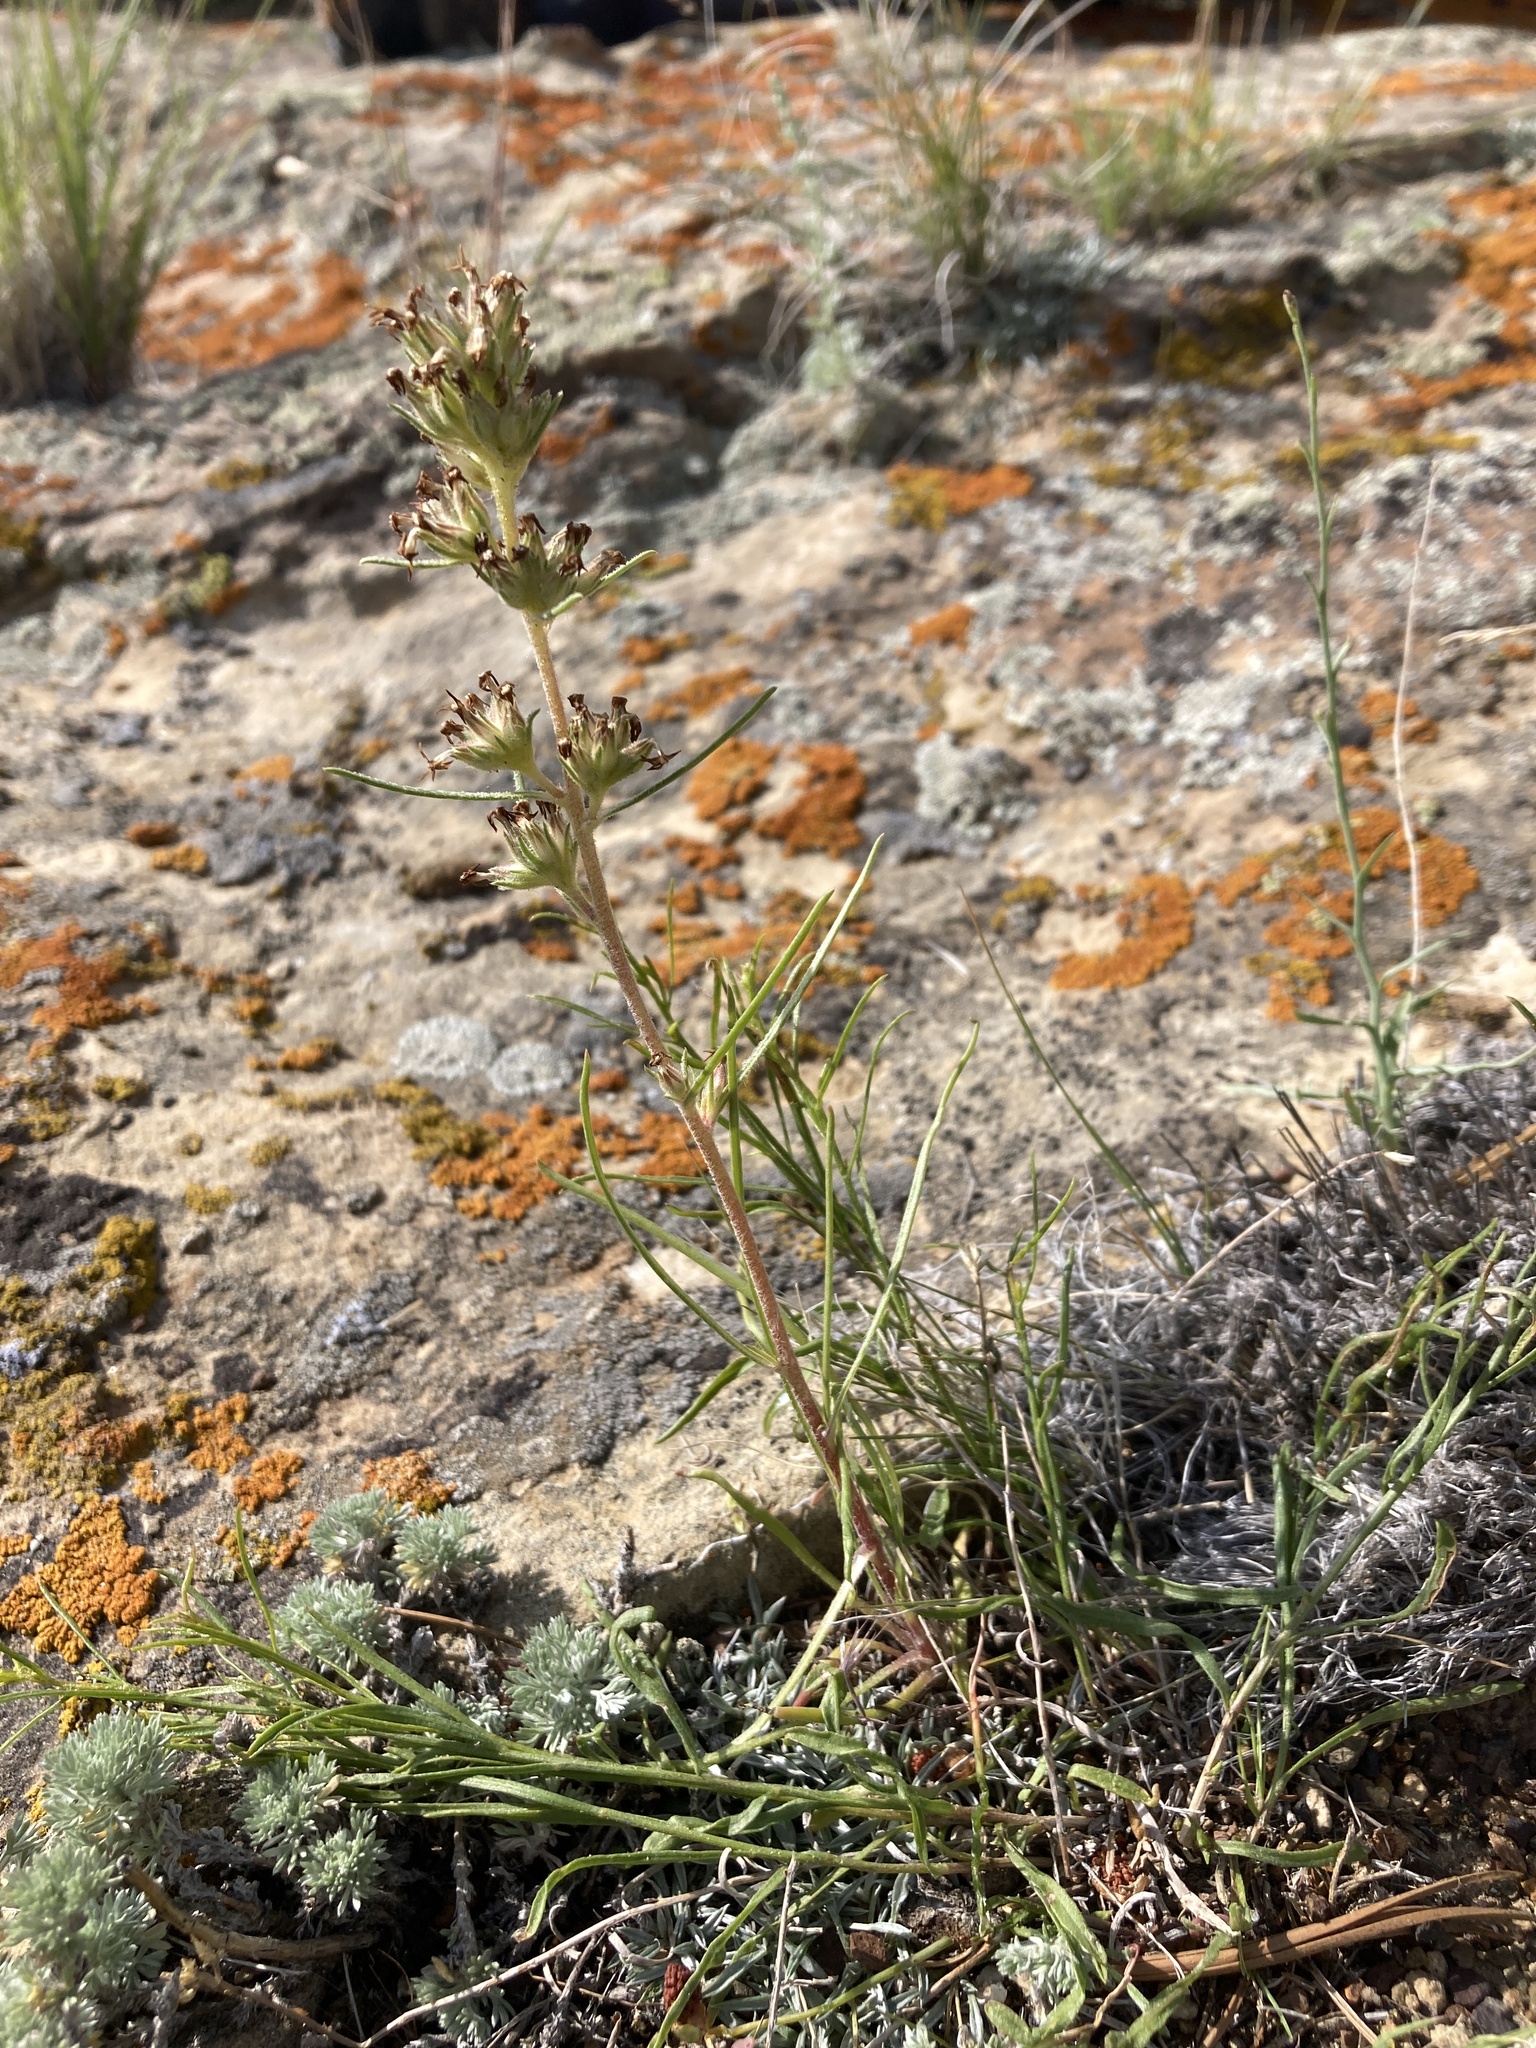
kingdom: Plantae
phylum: Tracheophyta
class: Magnoliopsida
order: Ericales
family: Polemoniaceae
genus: Ipomopsis
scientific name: Ipomopsis spicata
